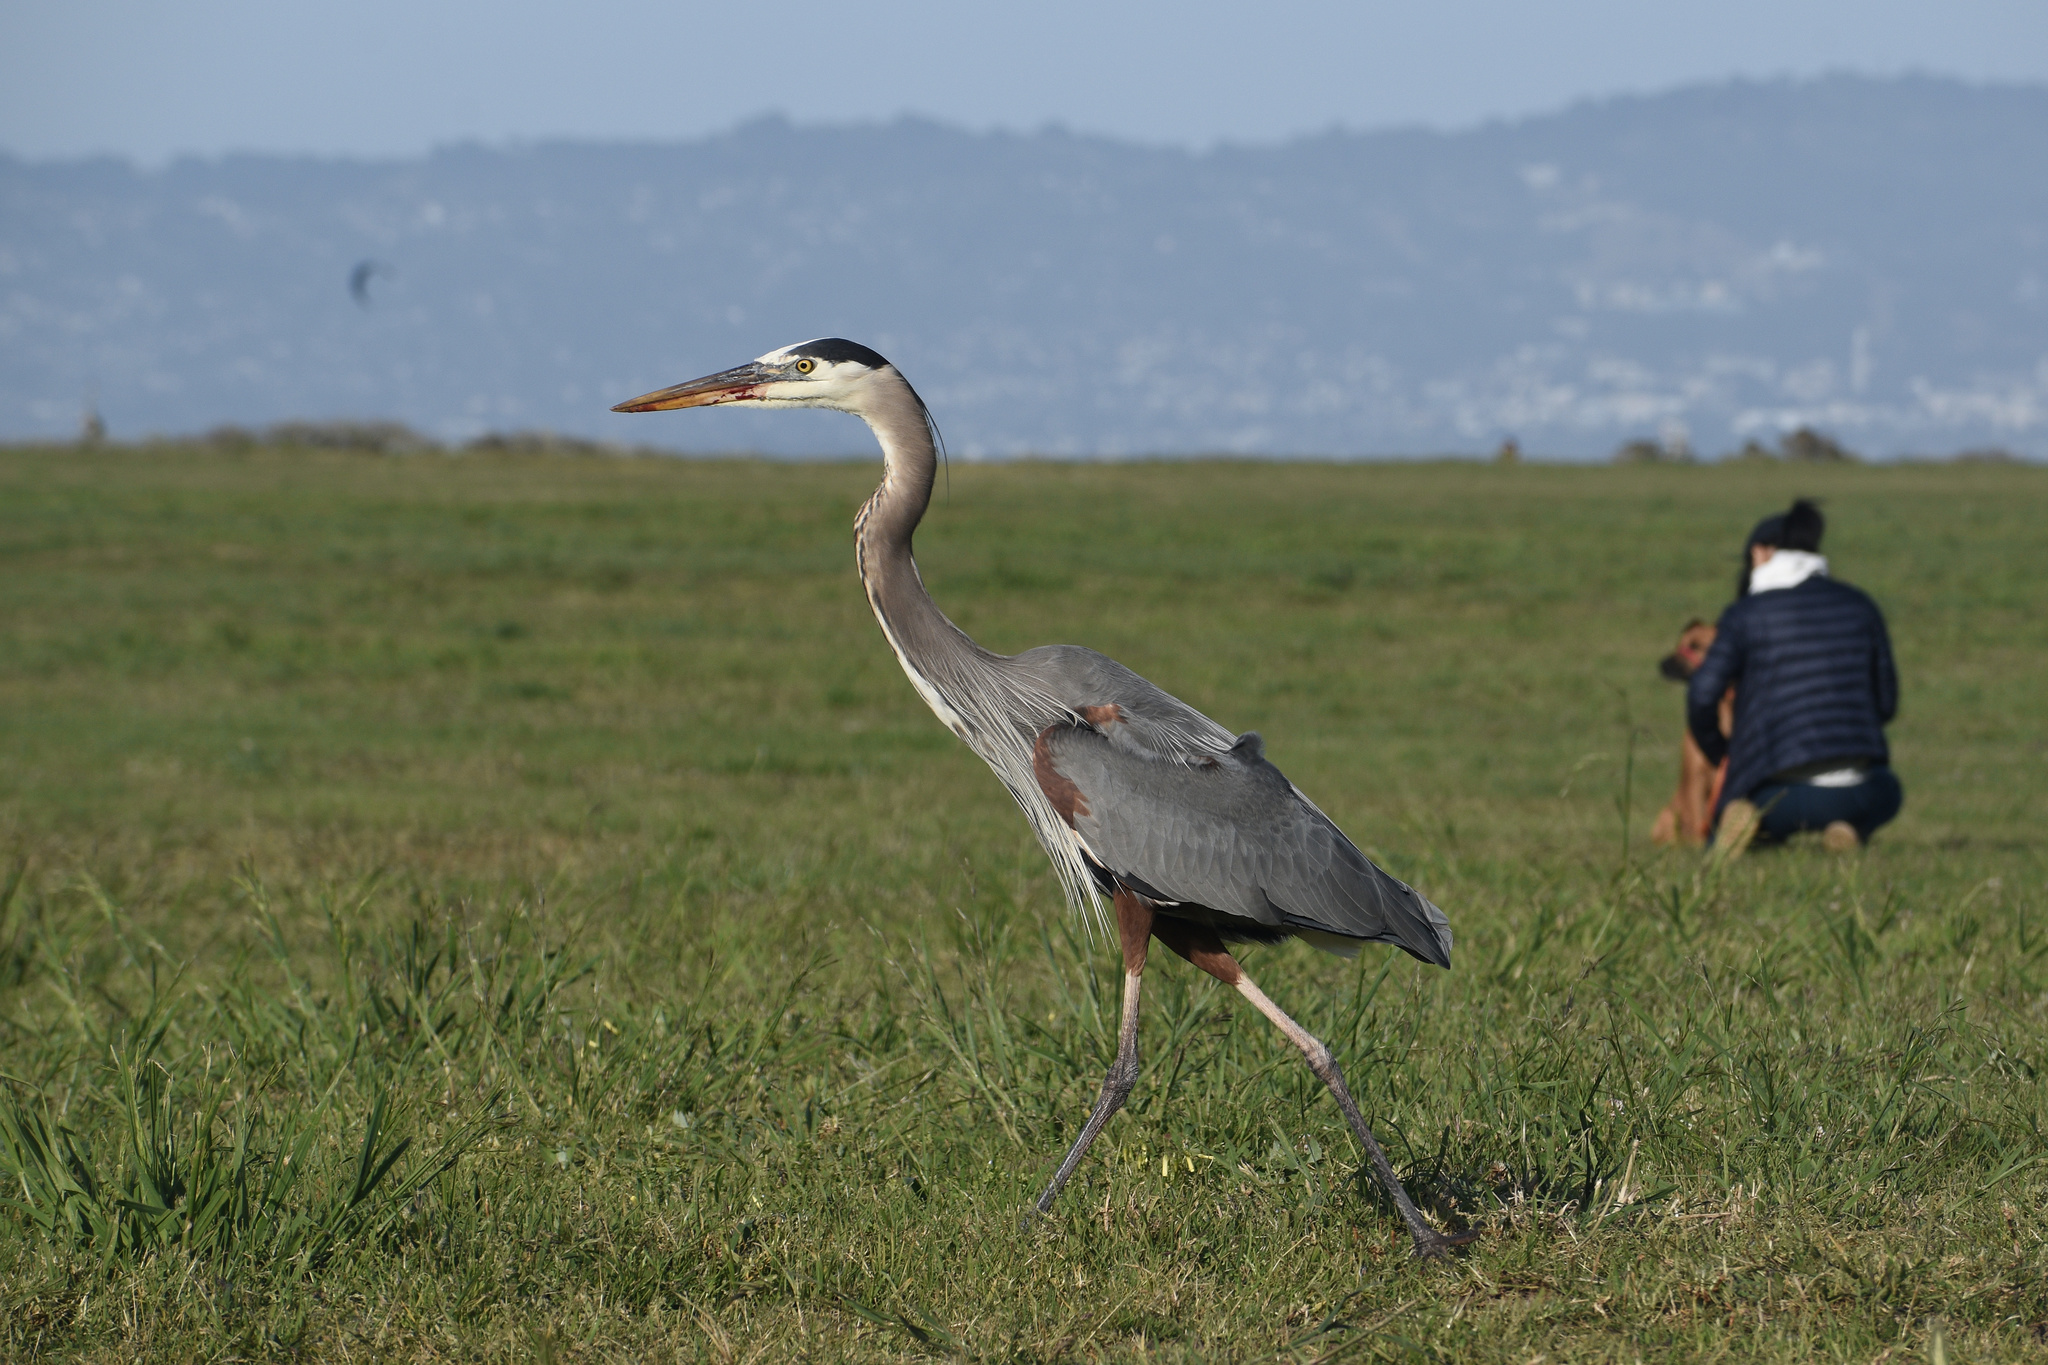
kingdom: Animalia
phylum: Chordata
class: Aves
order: Pelecaniformes
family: Ardeidae
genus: Ardea
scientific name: Ardea herodias
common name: Great blue heron
